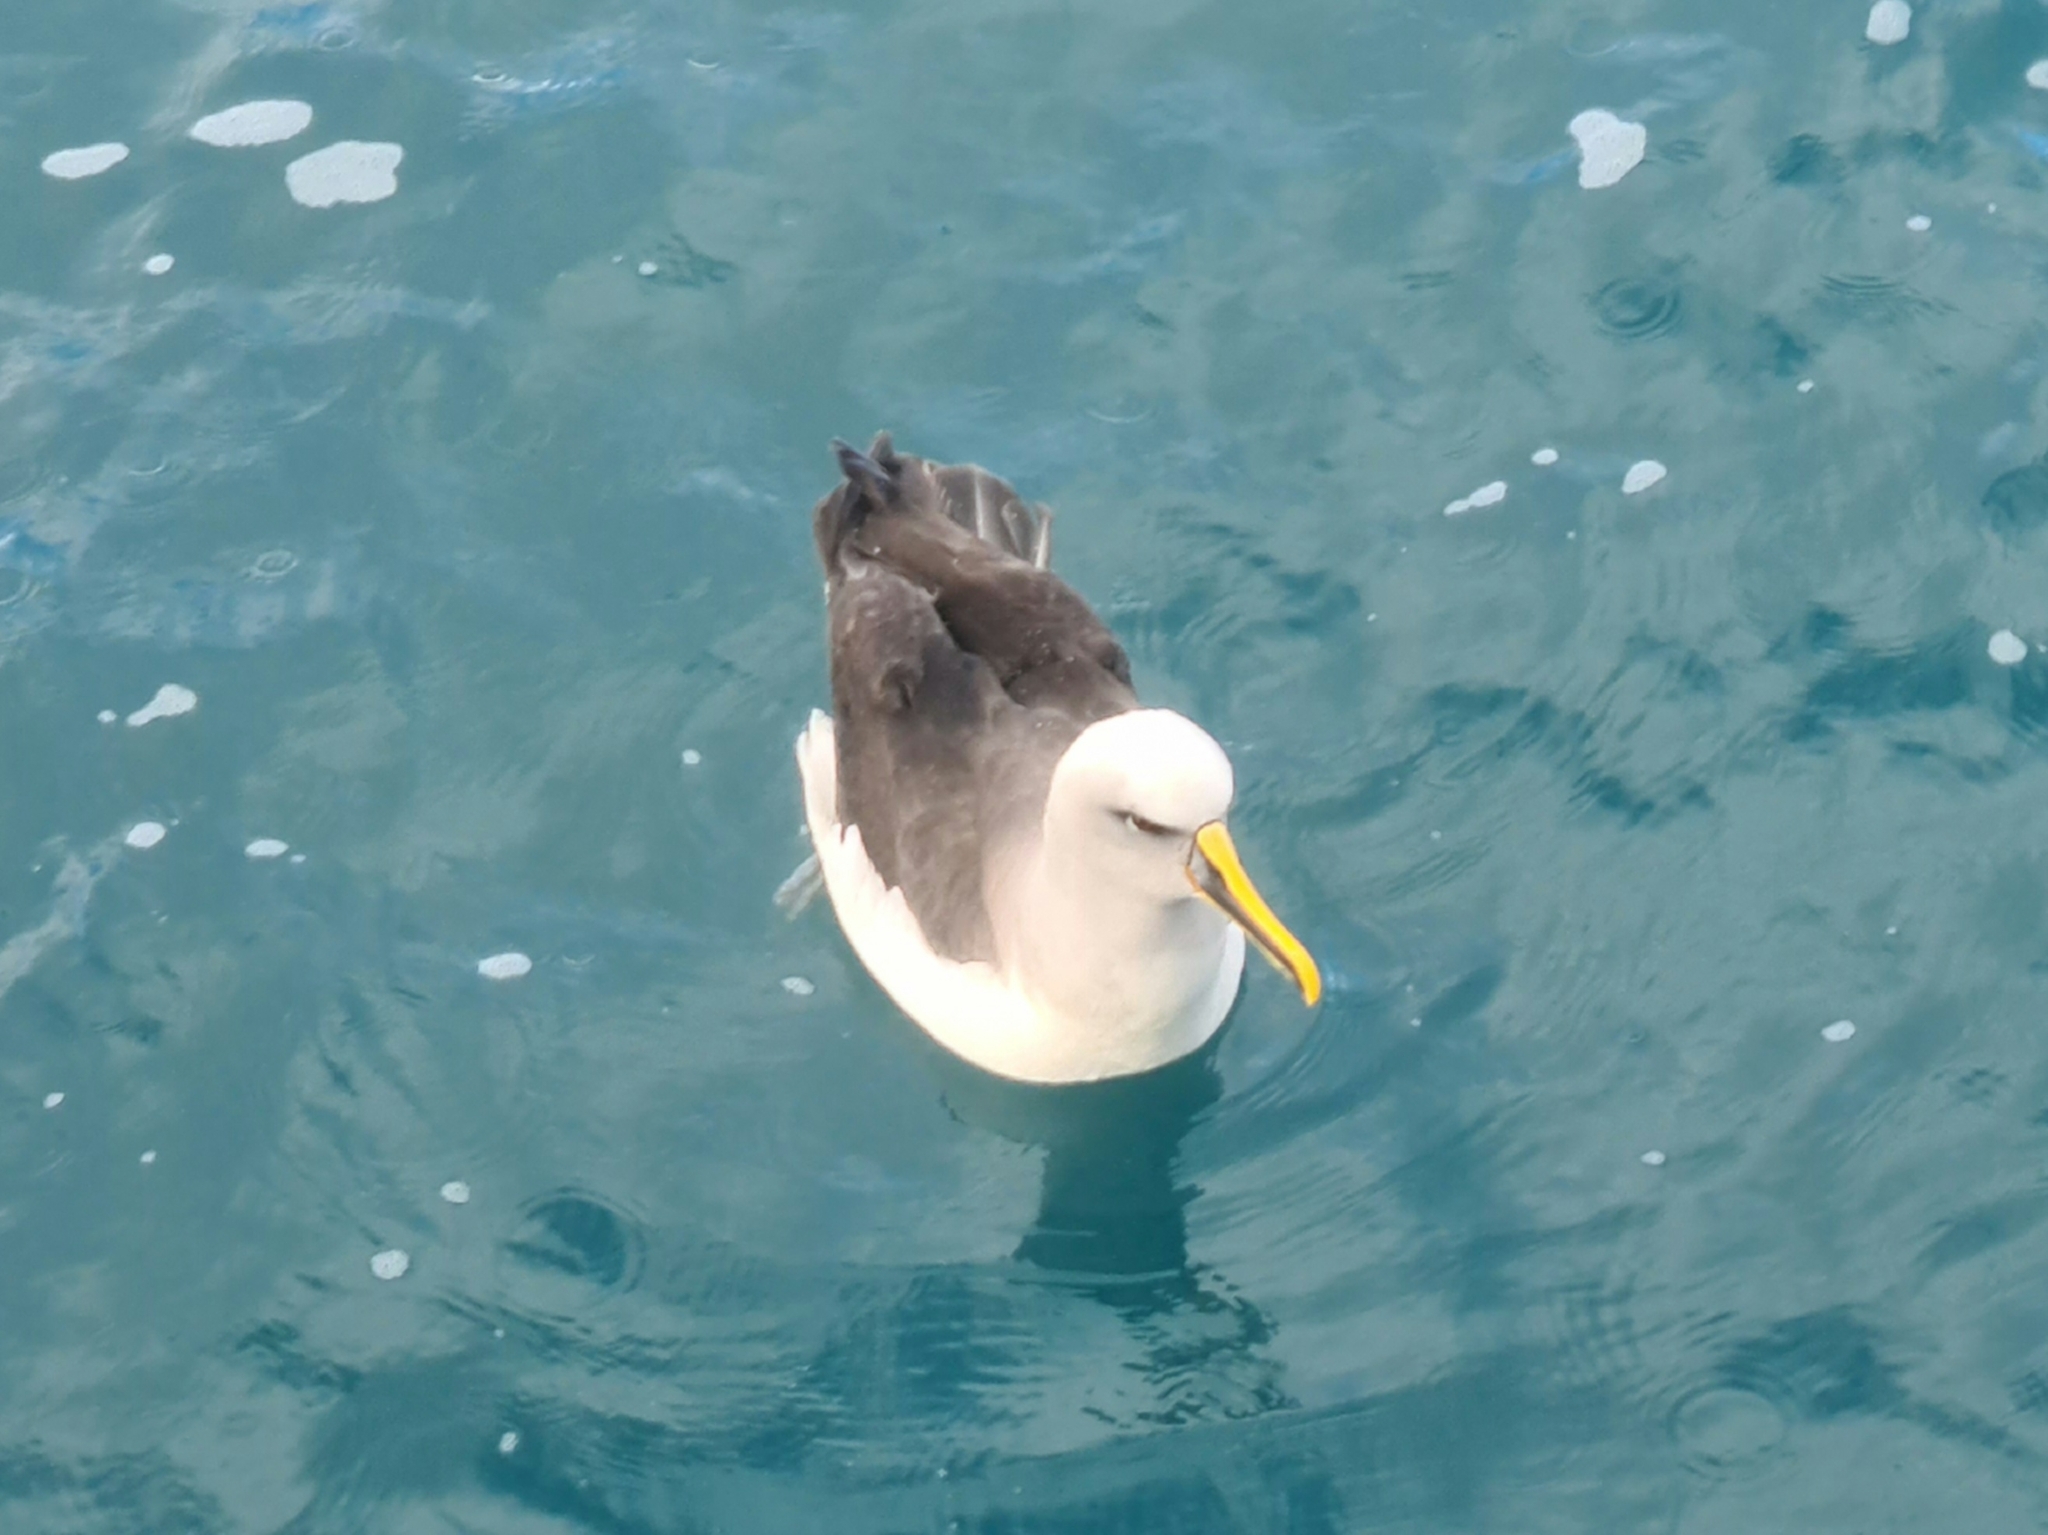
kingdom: Animalia
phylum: Chordata
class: Aves
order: Procellariiformes
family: Diomedeidae
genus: Thalassarche
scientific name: Thalassarche bulleri
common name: Buller's albatross
